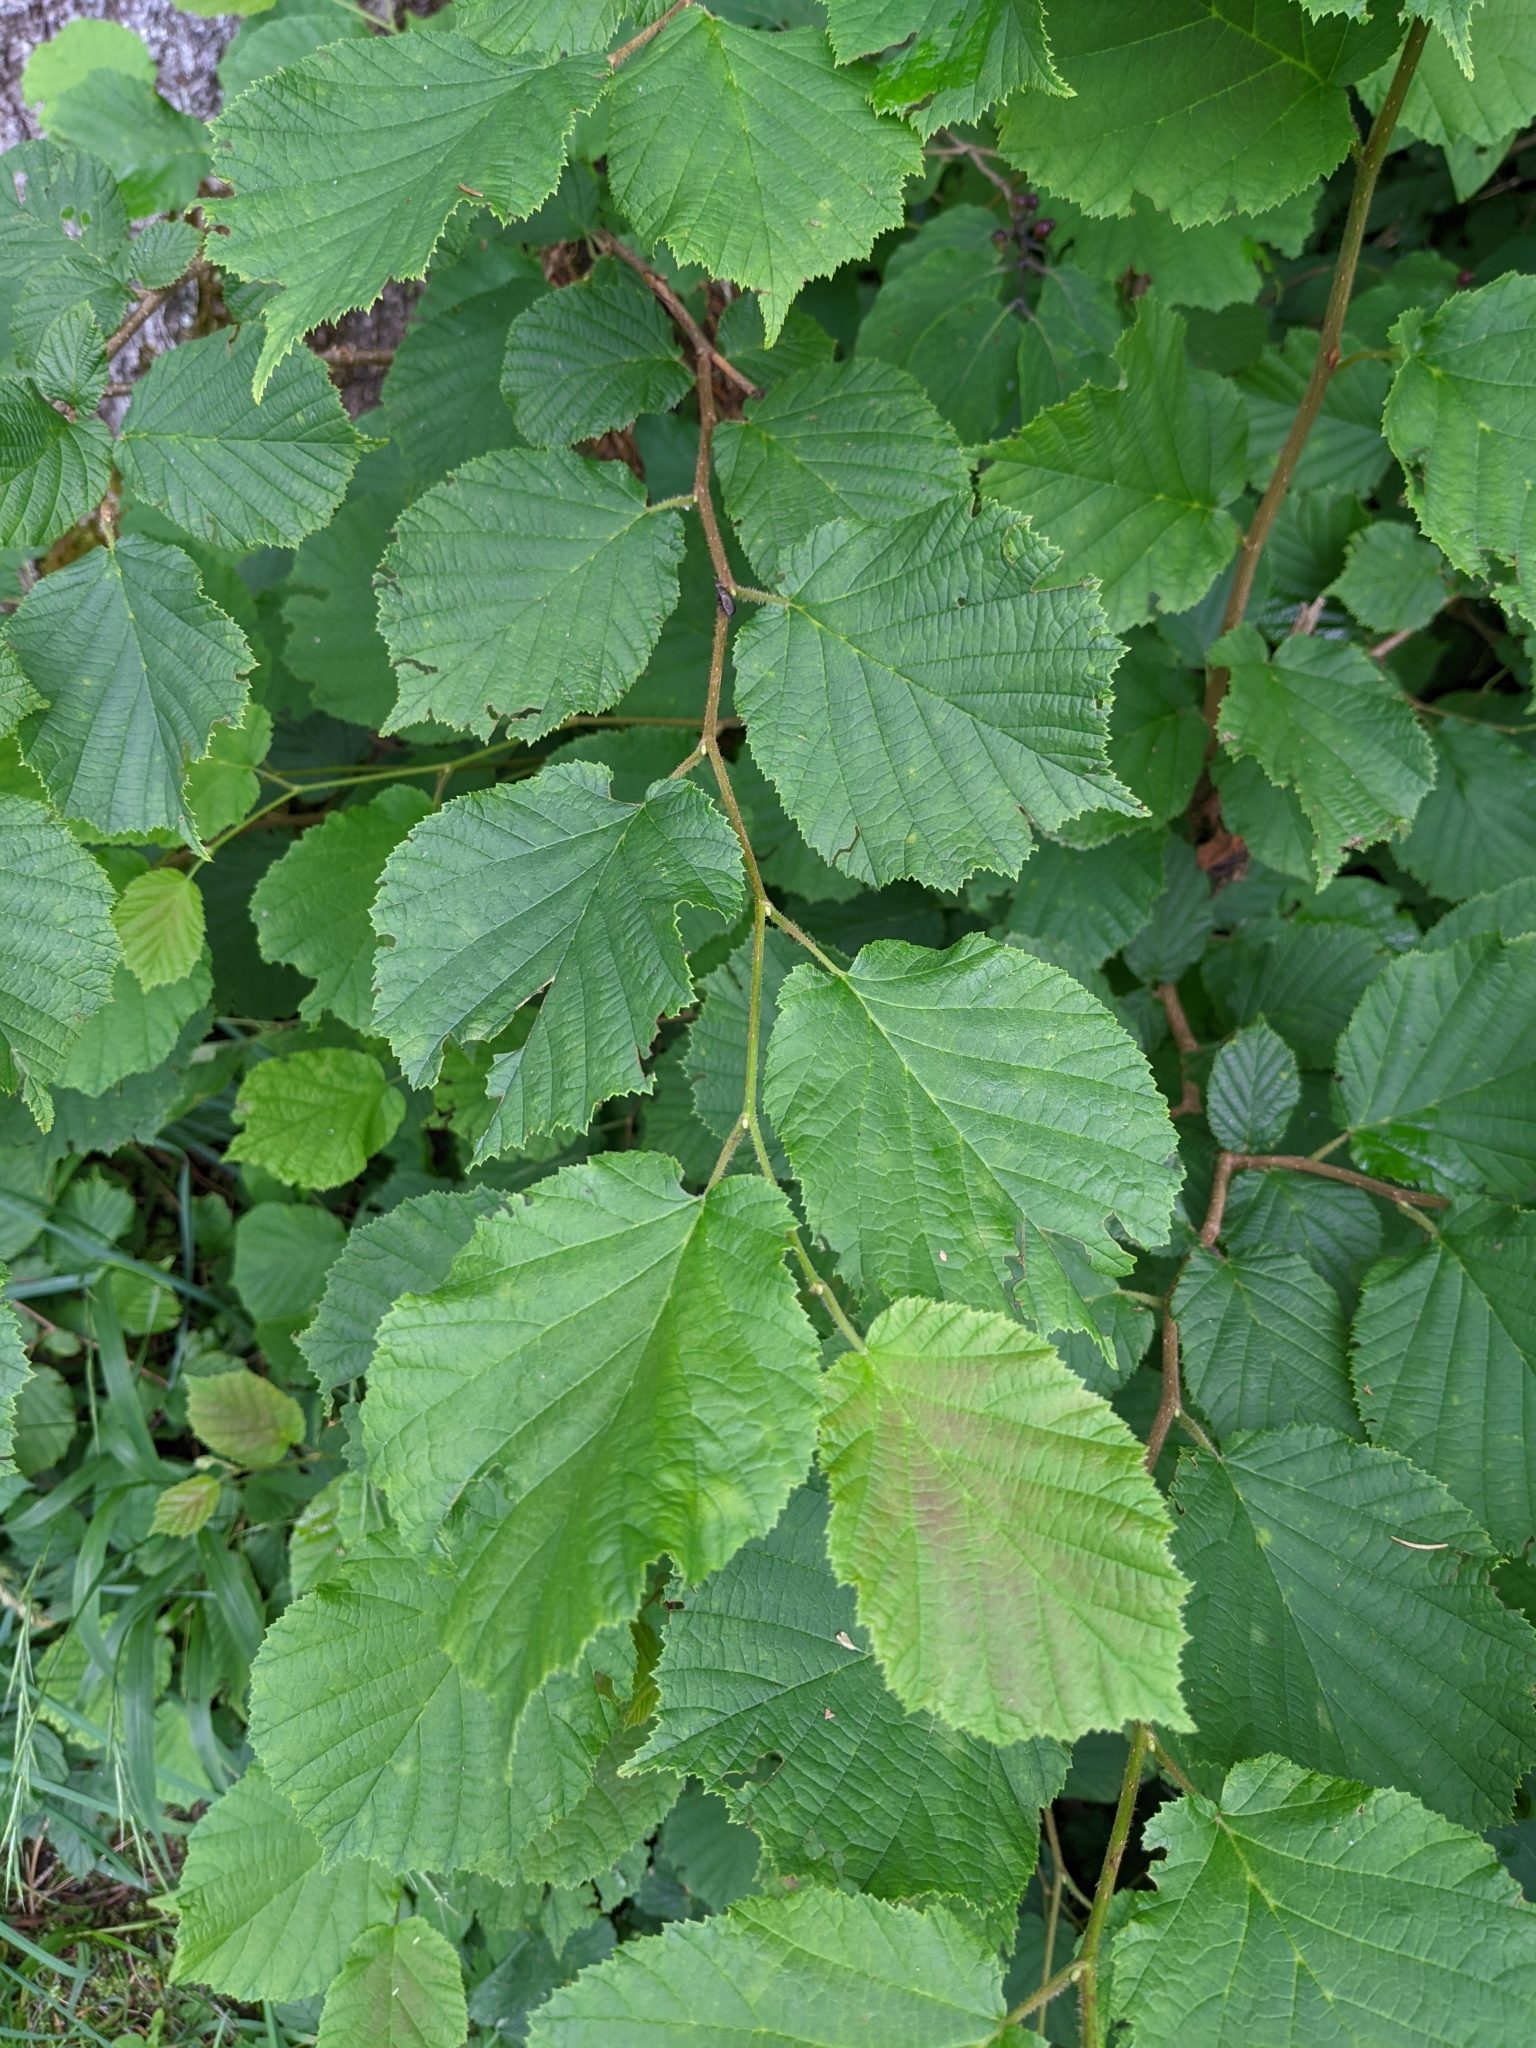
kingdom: Plantae
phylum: Tracheophyta
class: Magnoliopsida
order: Fagales
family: Betulaceae
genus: Corylus
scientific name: Corylus avellana
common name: European hazel
